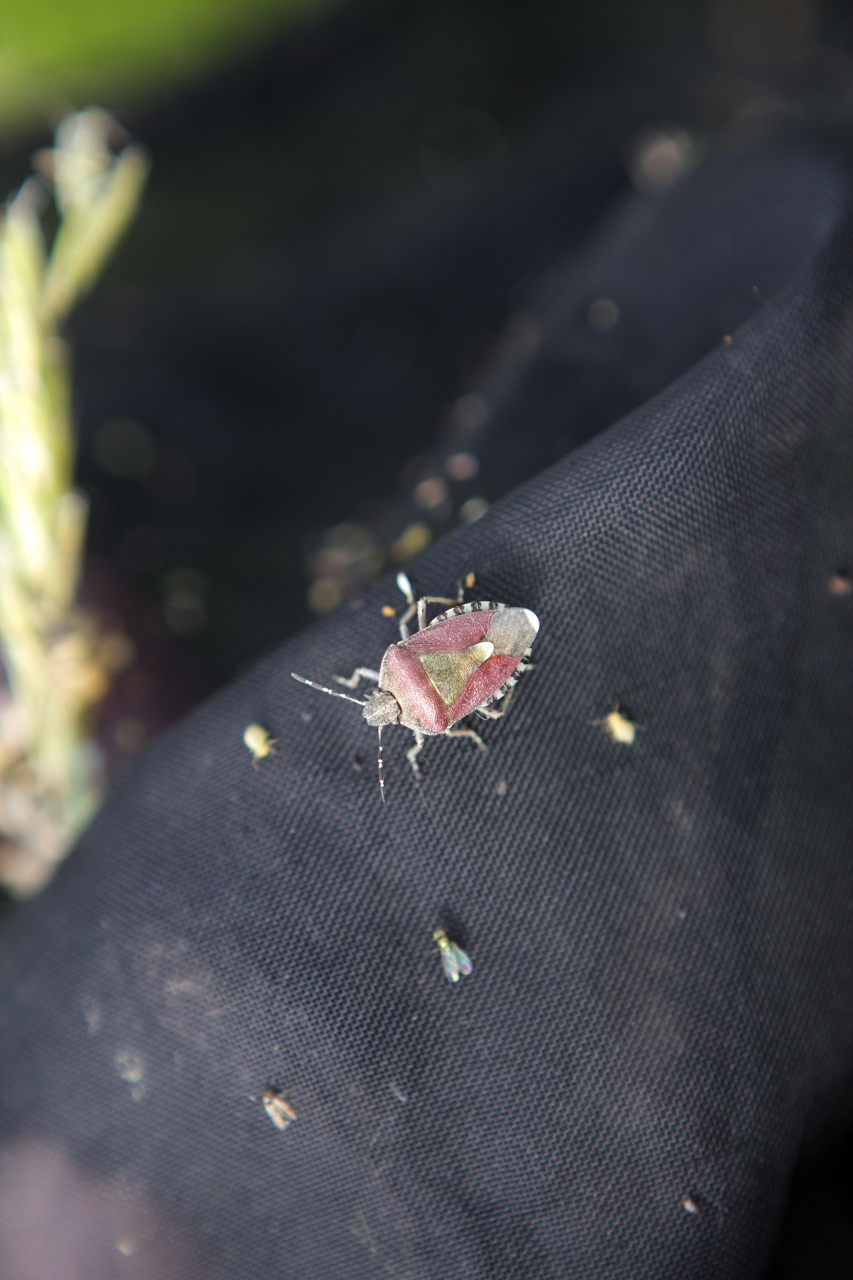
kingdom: Animalia
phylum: Arthropoda
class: Insecta
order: Hemiptera
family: Pentatomidae
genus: Dolycoris
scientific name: Dolycoris baccarum
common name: Sloe bug
